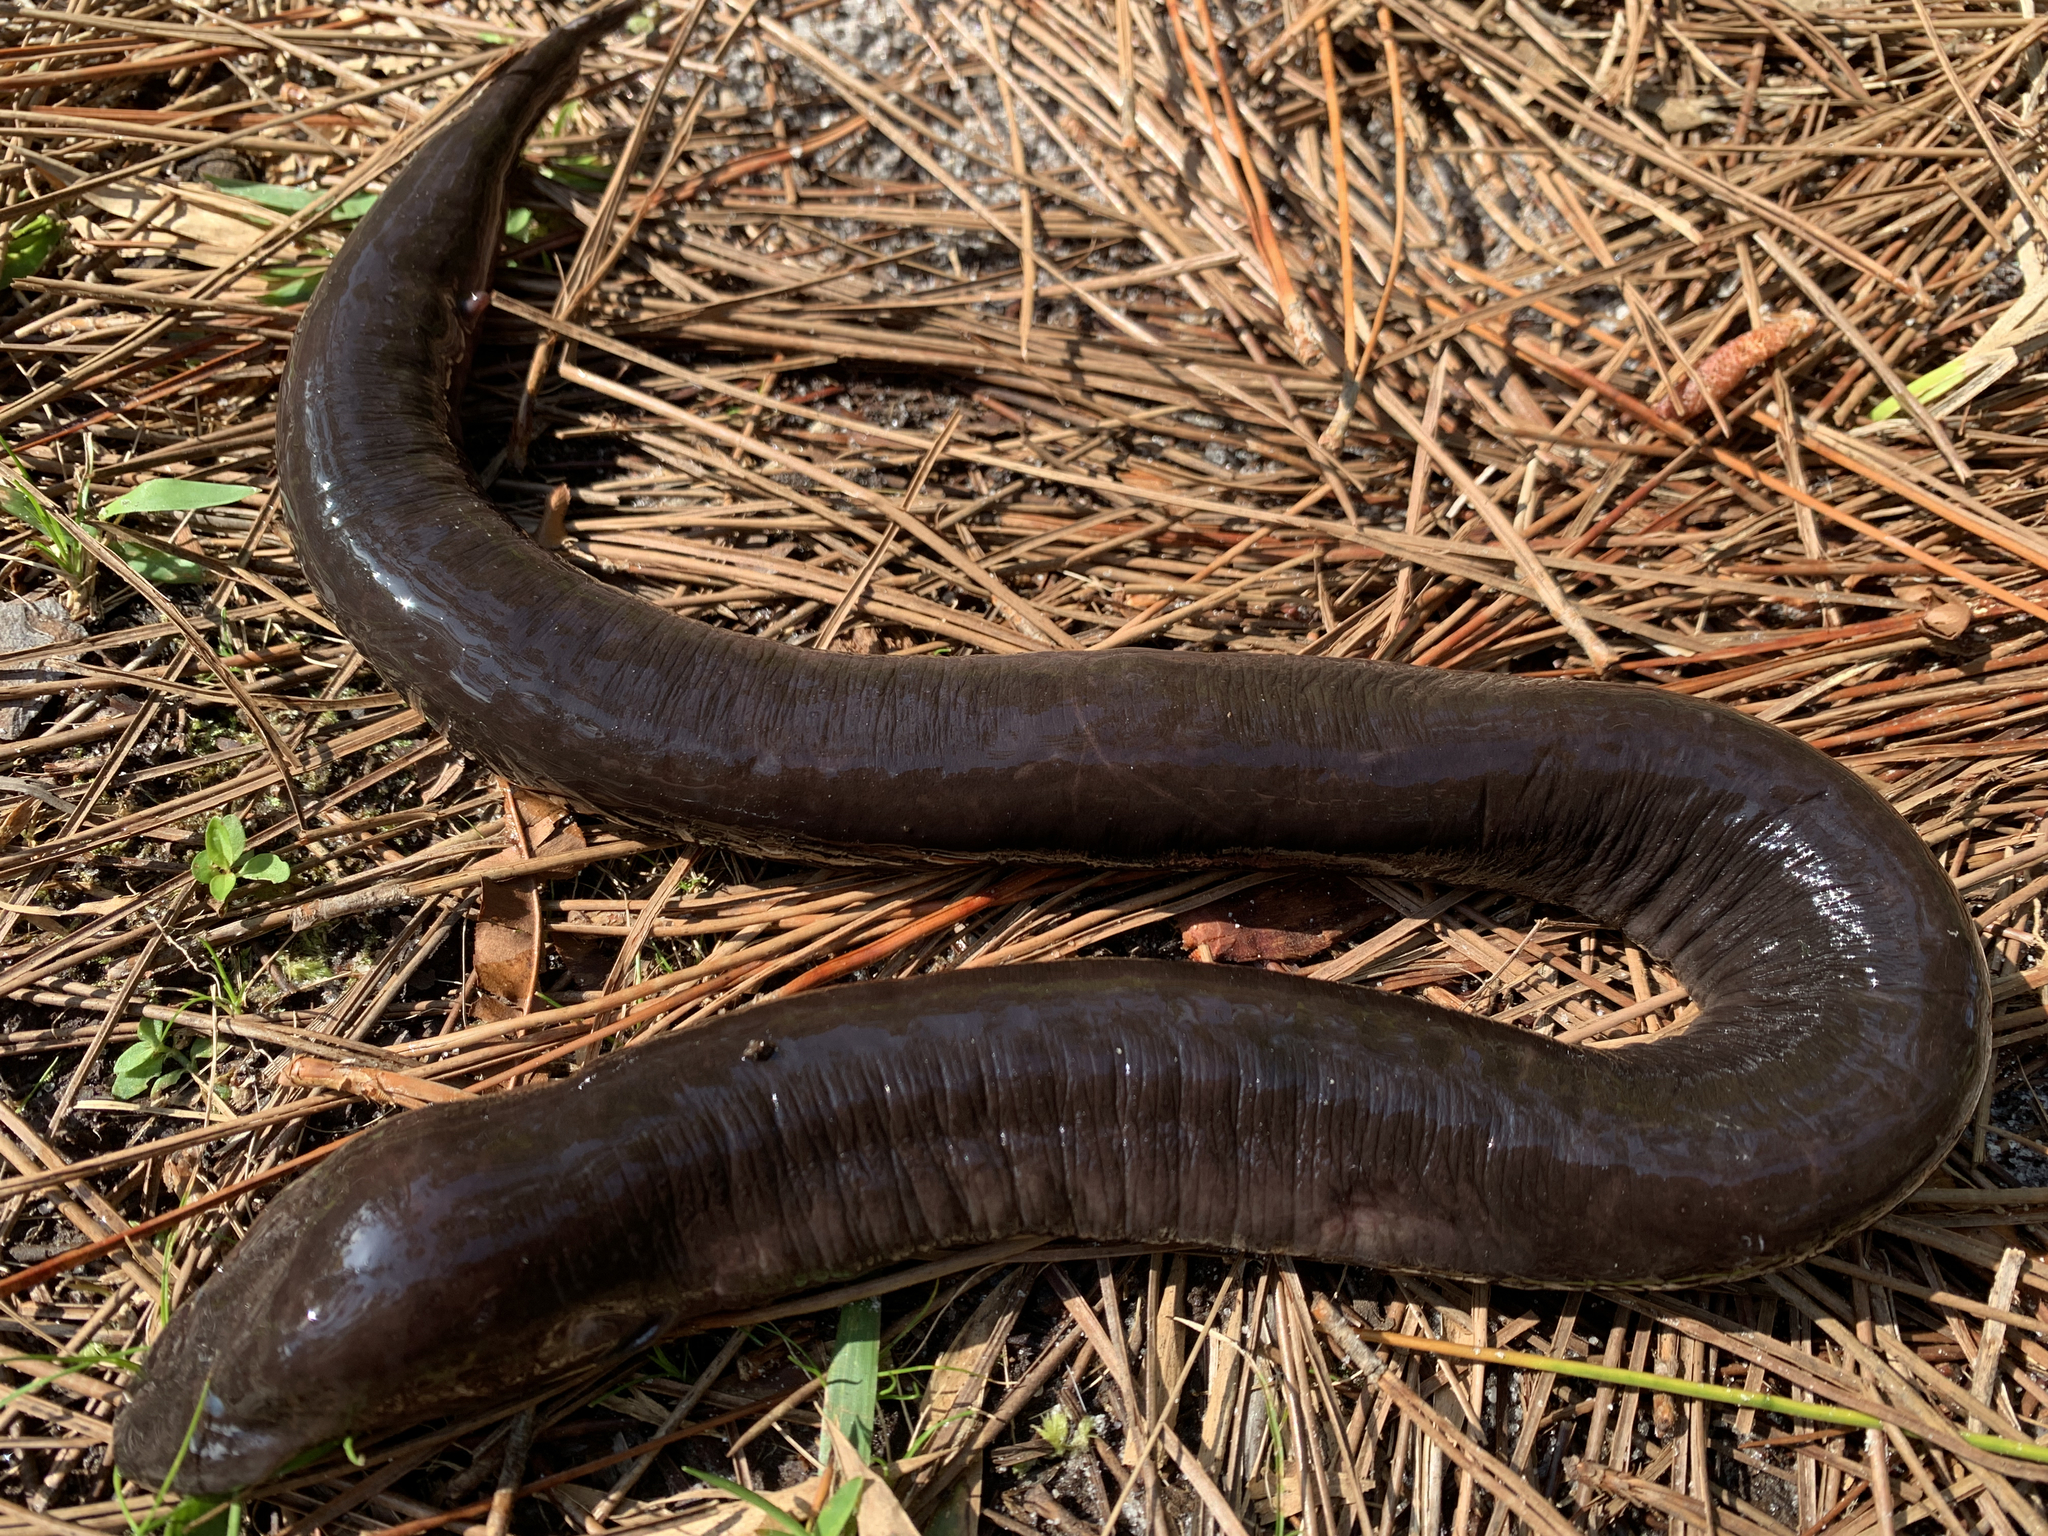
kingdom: Animalia
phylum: Chordata
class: Amphibia
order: Caudata
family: Amphiumidae
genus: Amphiuma
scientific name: Amphiuma means
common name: Two-toed amphiuma
